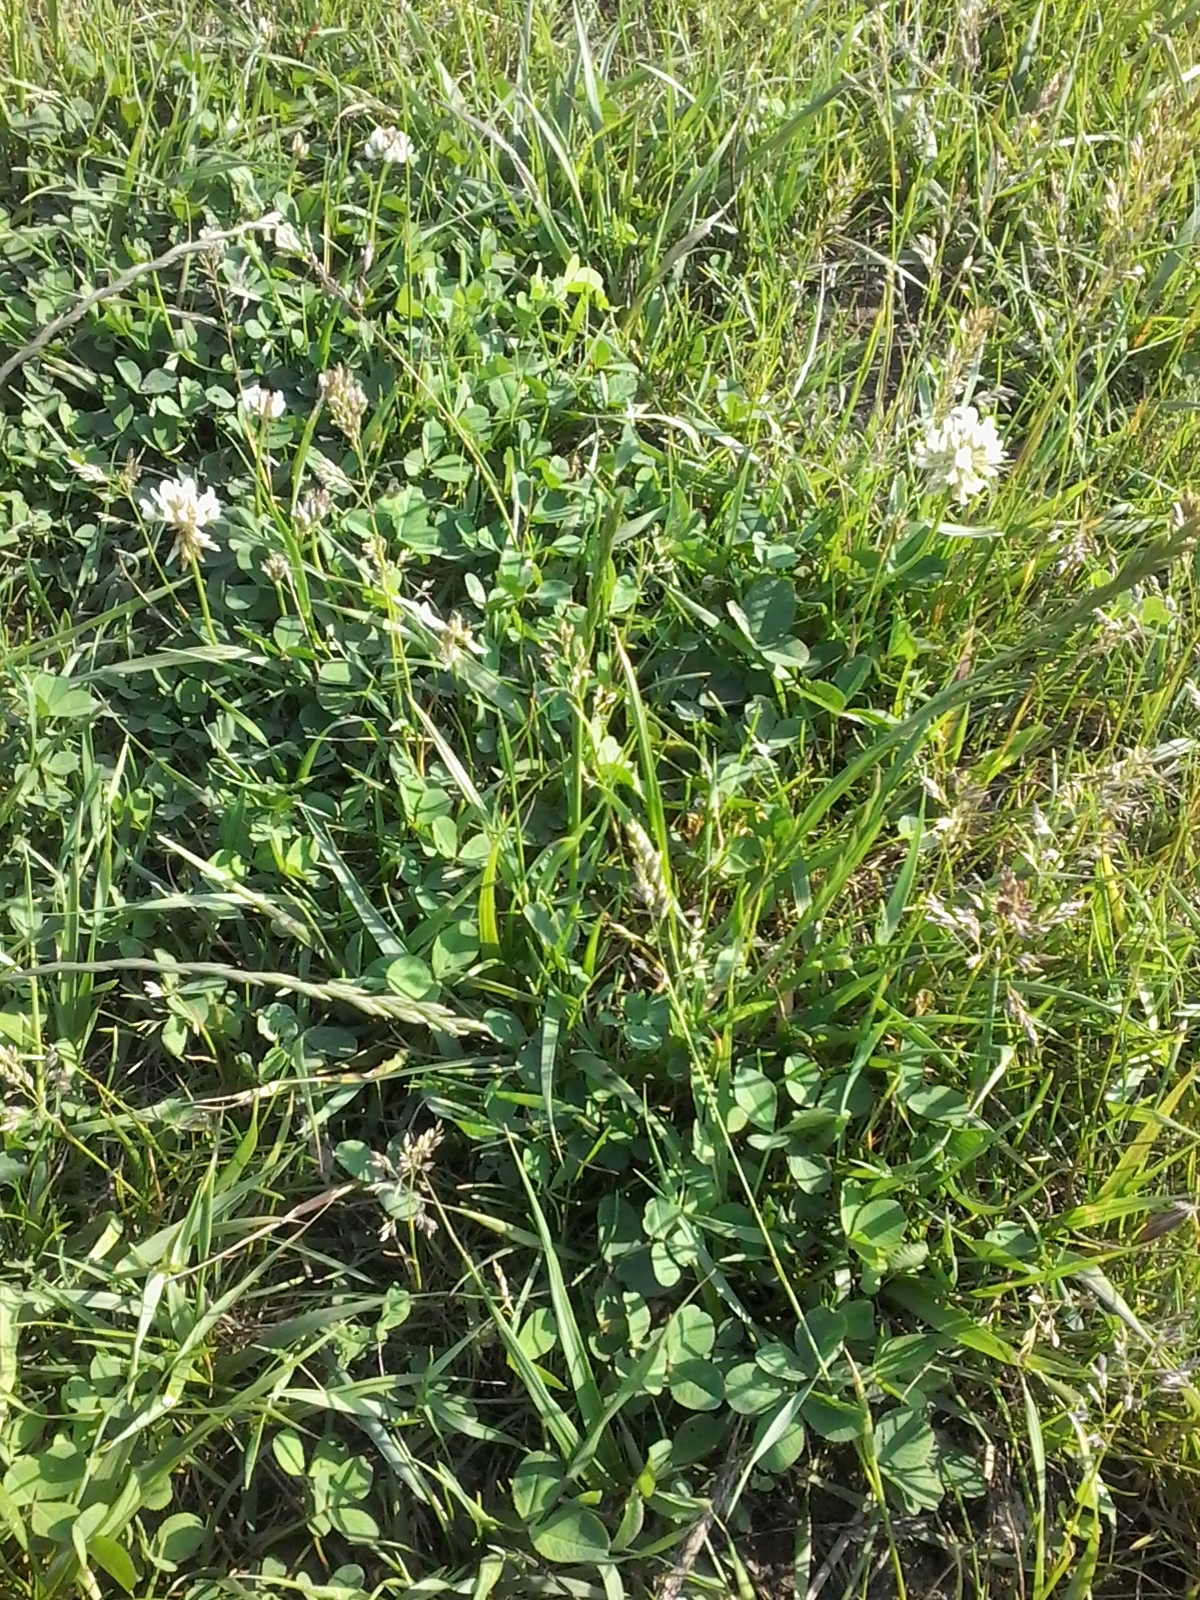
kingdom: Plantae
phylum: Tracheophyta
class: Magnoliopsida
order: Fabales
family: Fabaceae
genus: Trifolium
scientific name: Trifolium repens
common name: White clover
